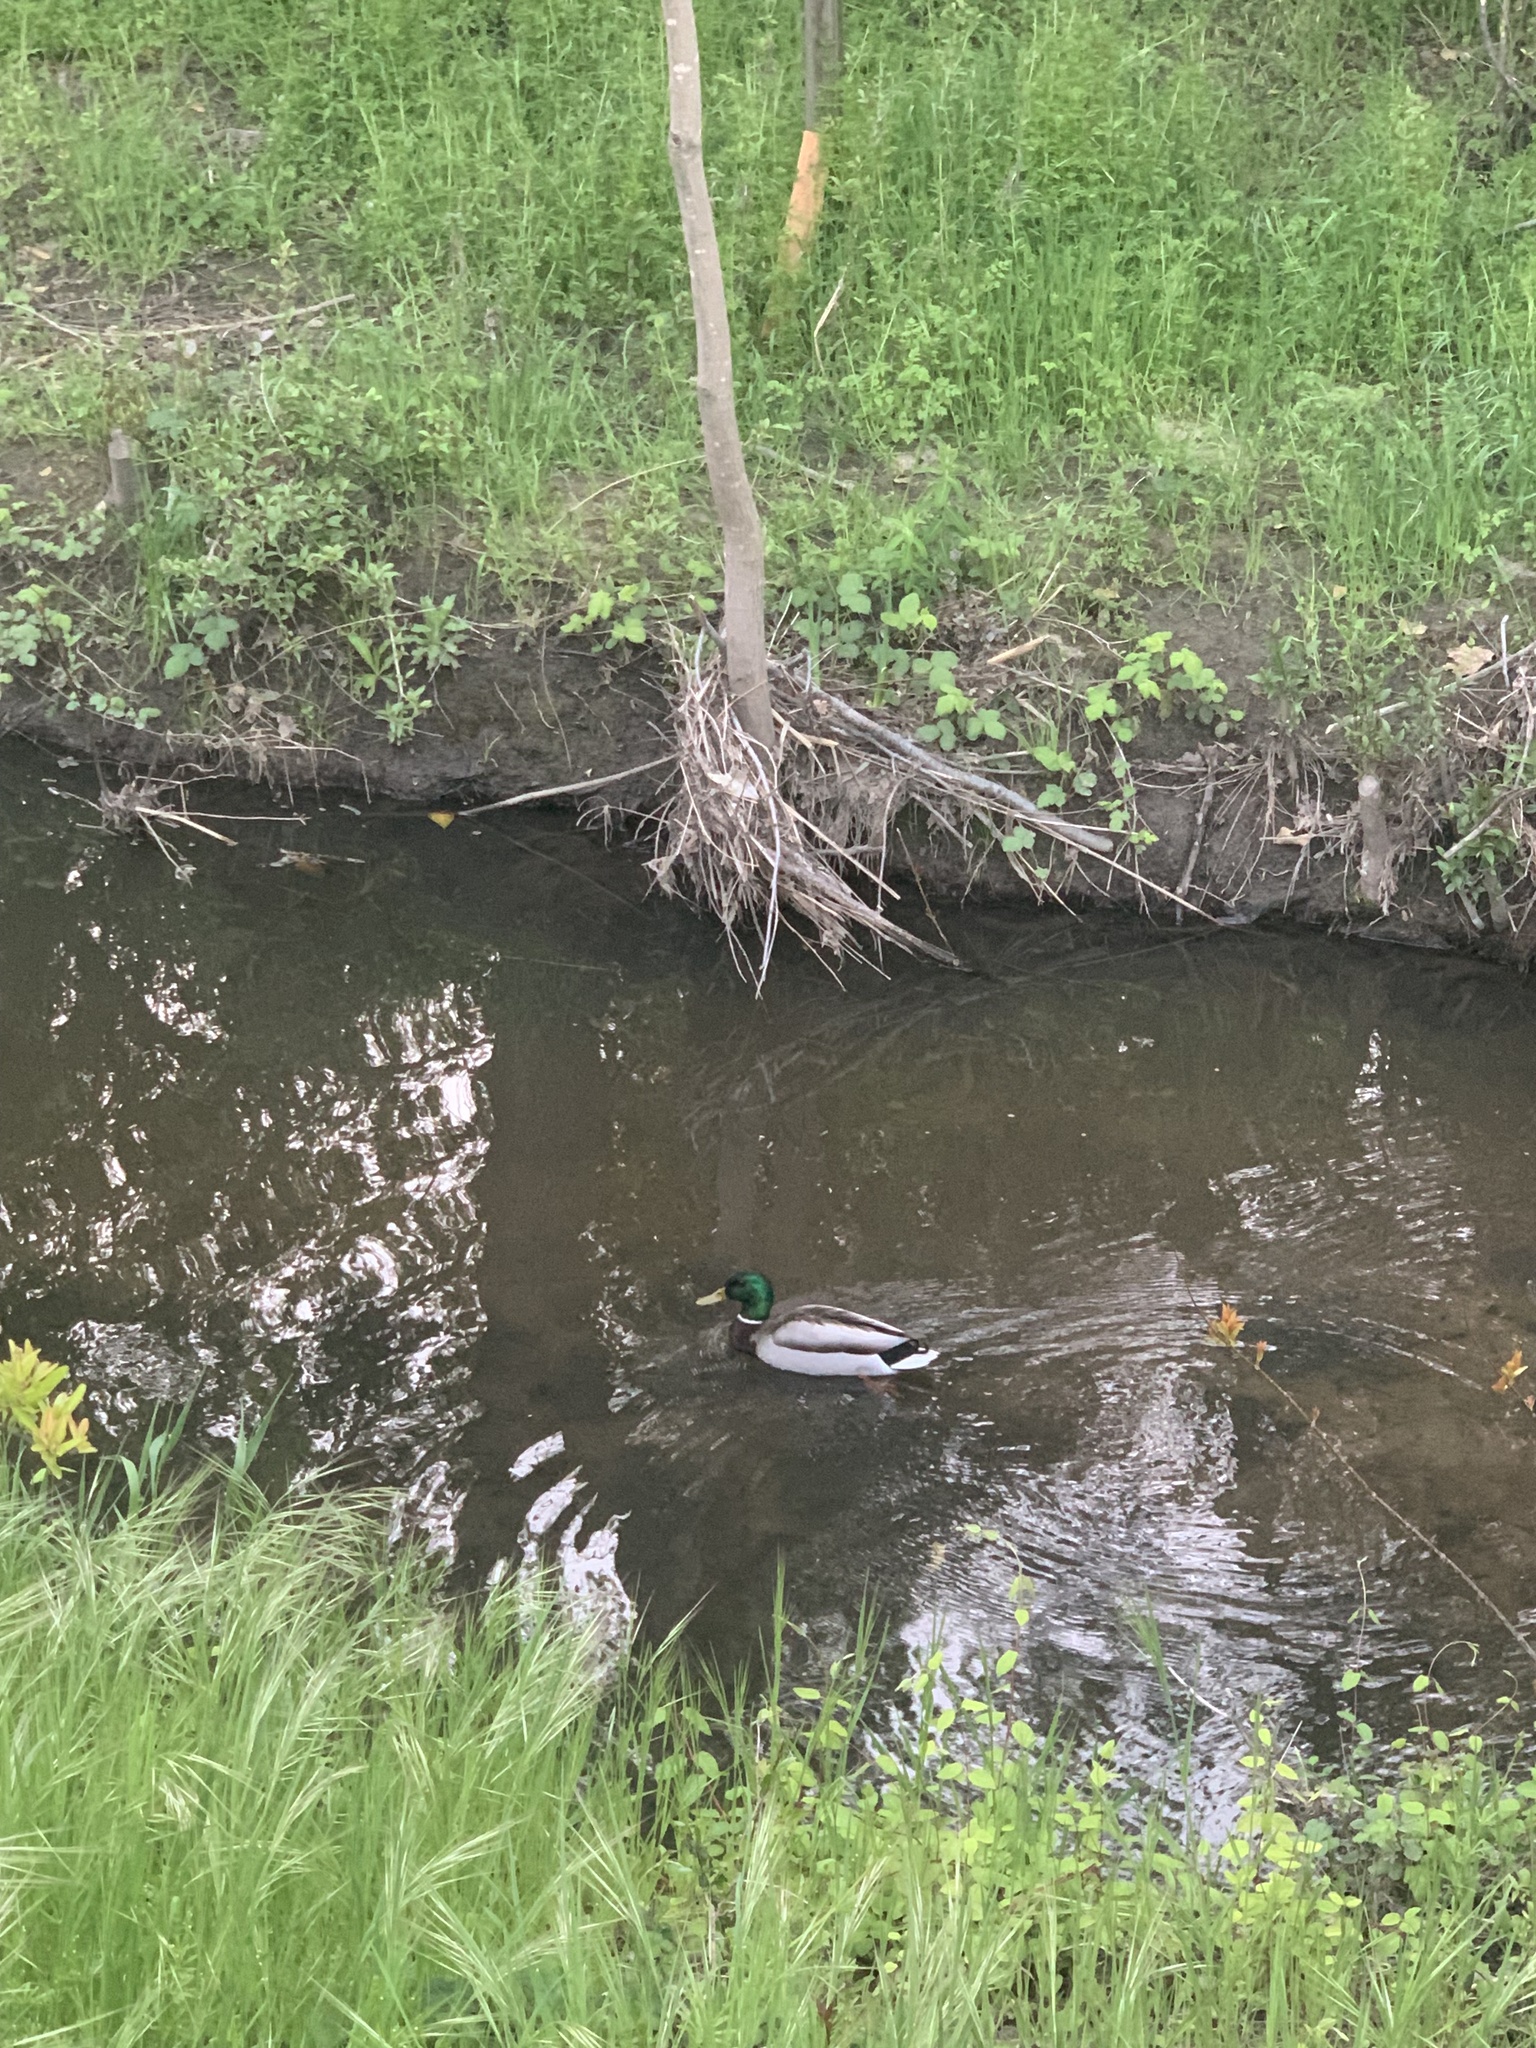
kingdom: Animalia
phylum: Chordata
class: Aves
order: Anseriformes
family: Anatidae
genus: Anas
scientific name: Anas platyrhynchos
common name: Mallard
